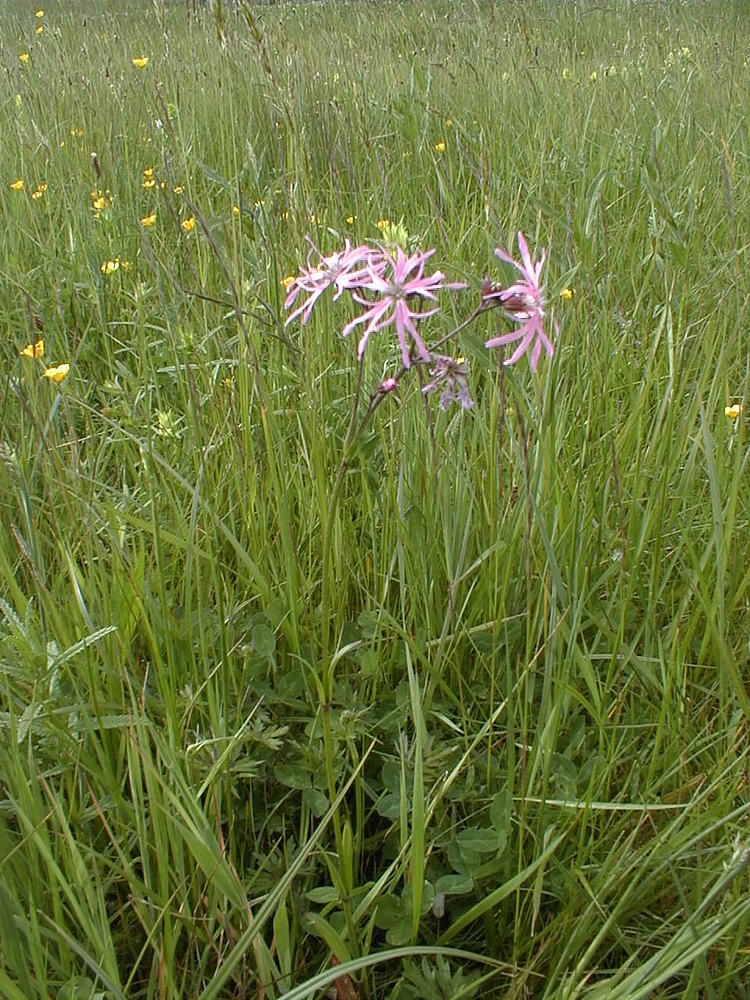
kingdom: Plantae
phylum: Tracheophyta
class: Magnoliopsida
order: Caryophyllales
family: Caryophyllaceae
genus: Silene
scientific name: Silene flos-cuculi
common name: Ragged-robin
